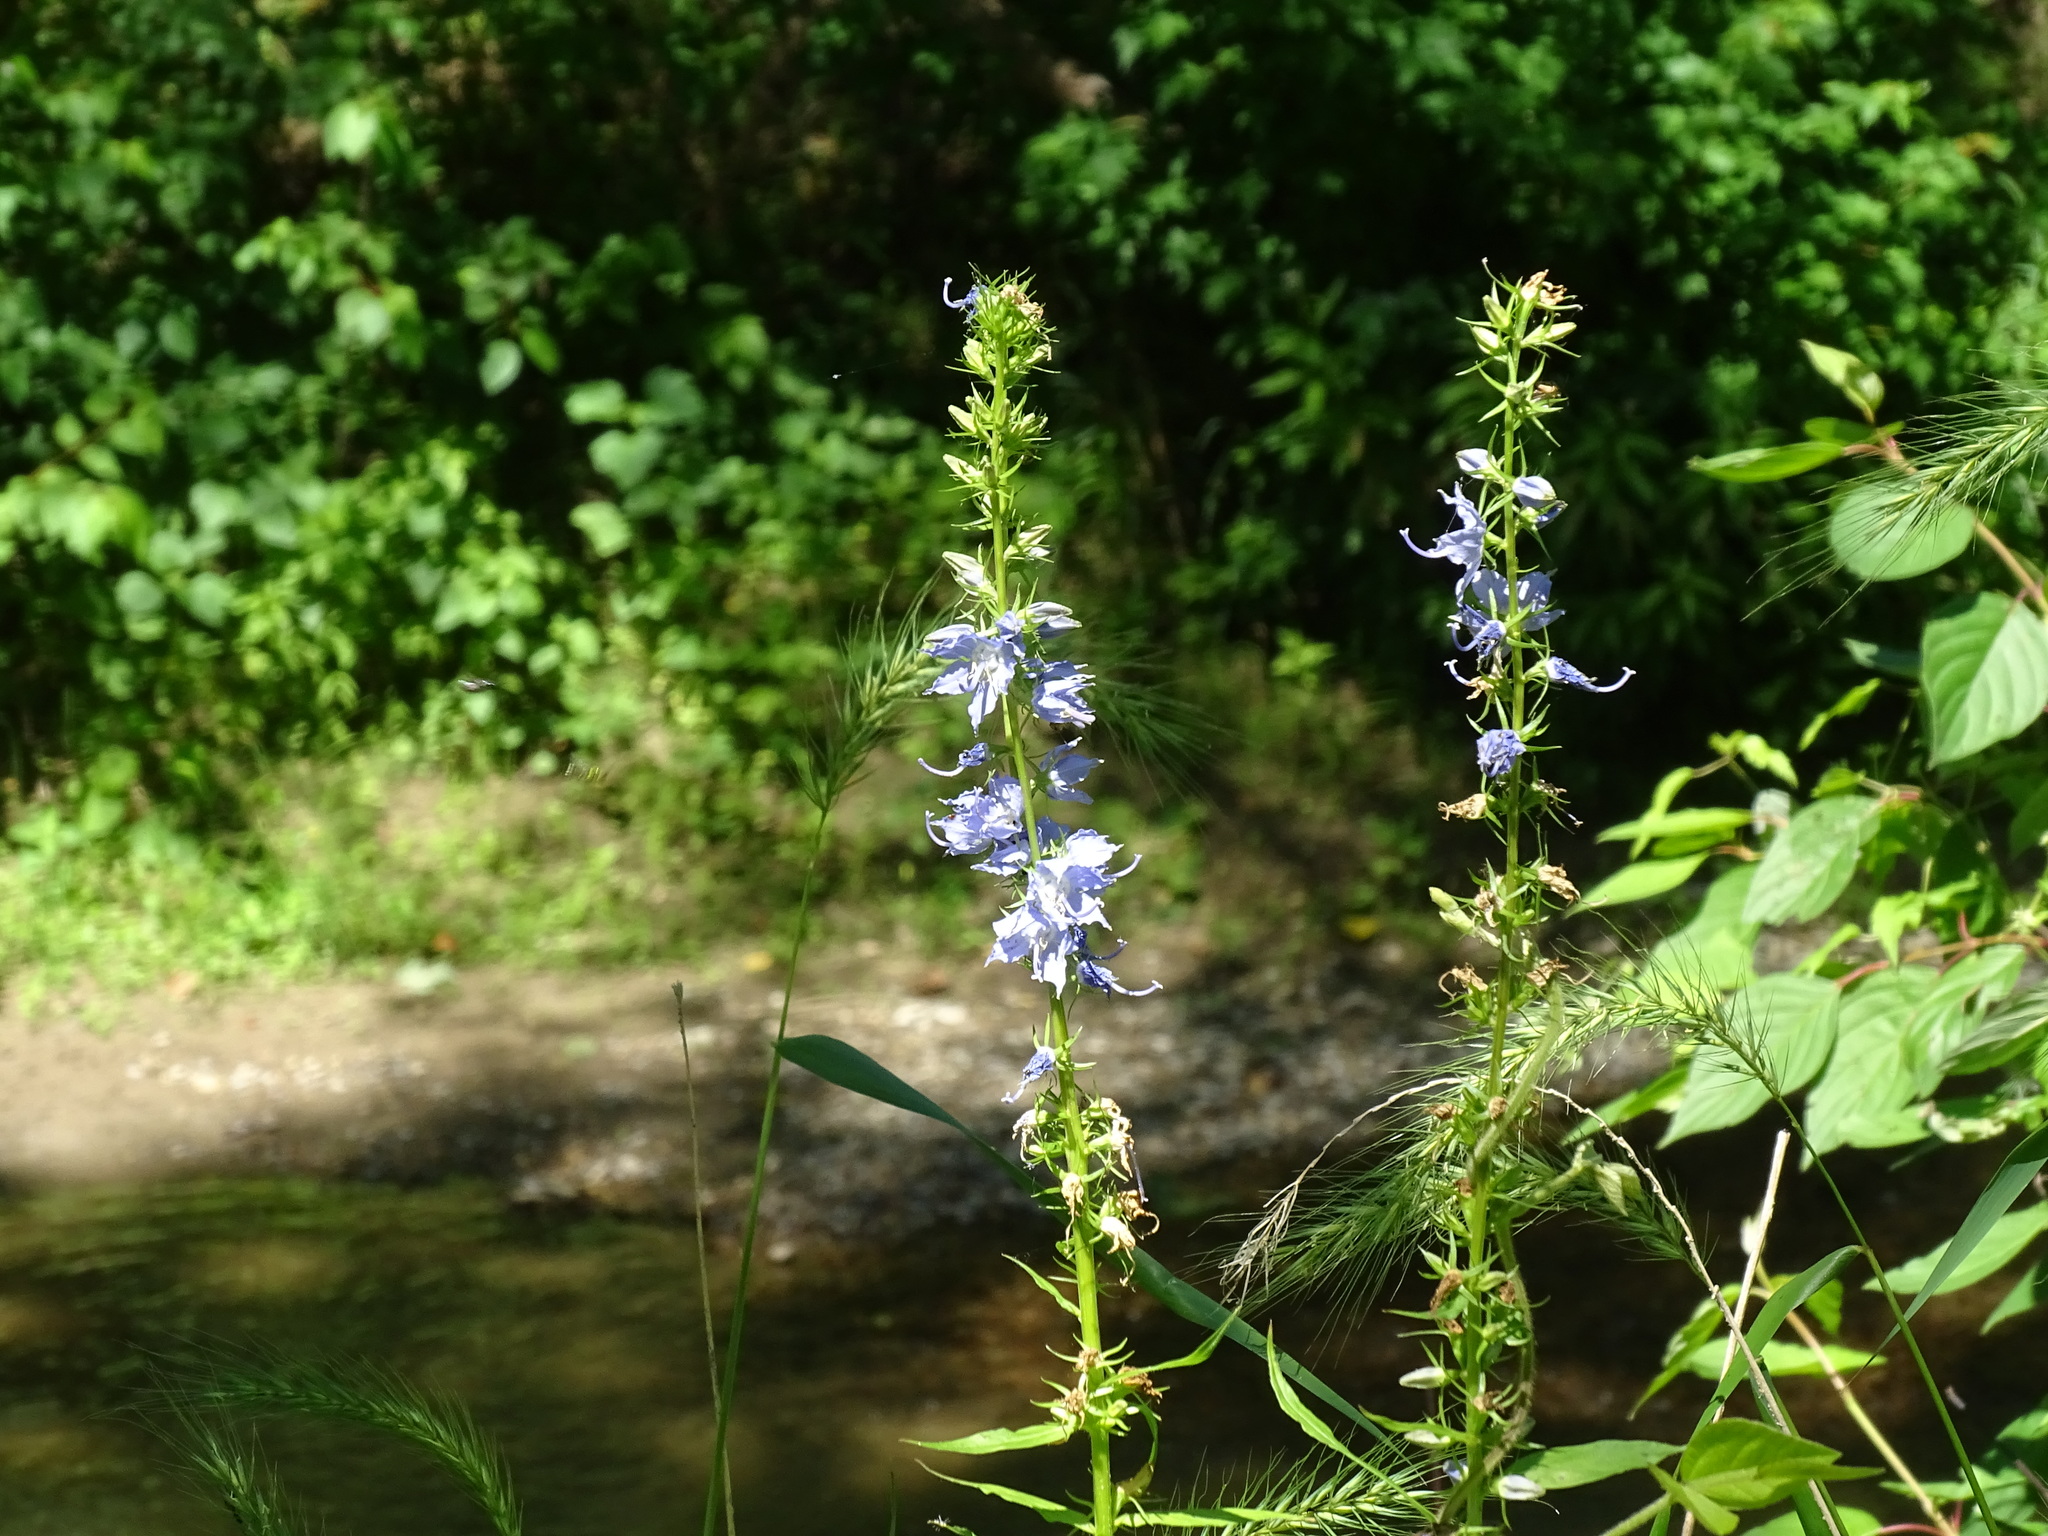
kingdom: Plantae
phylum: Tracheophyta
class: Magnoliopsida
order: Asterales
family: Campanulaceae
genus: Campanulastrum
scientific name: Campanulastrum americanum
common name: American bellflower
